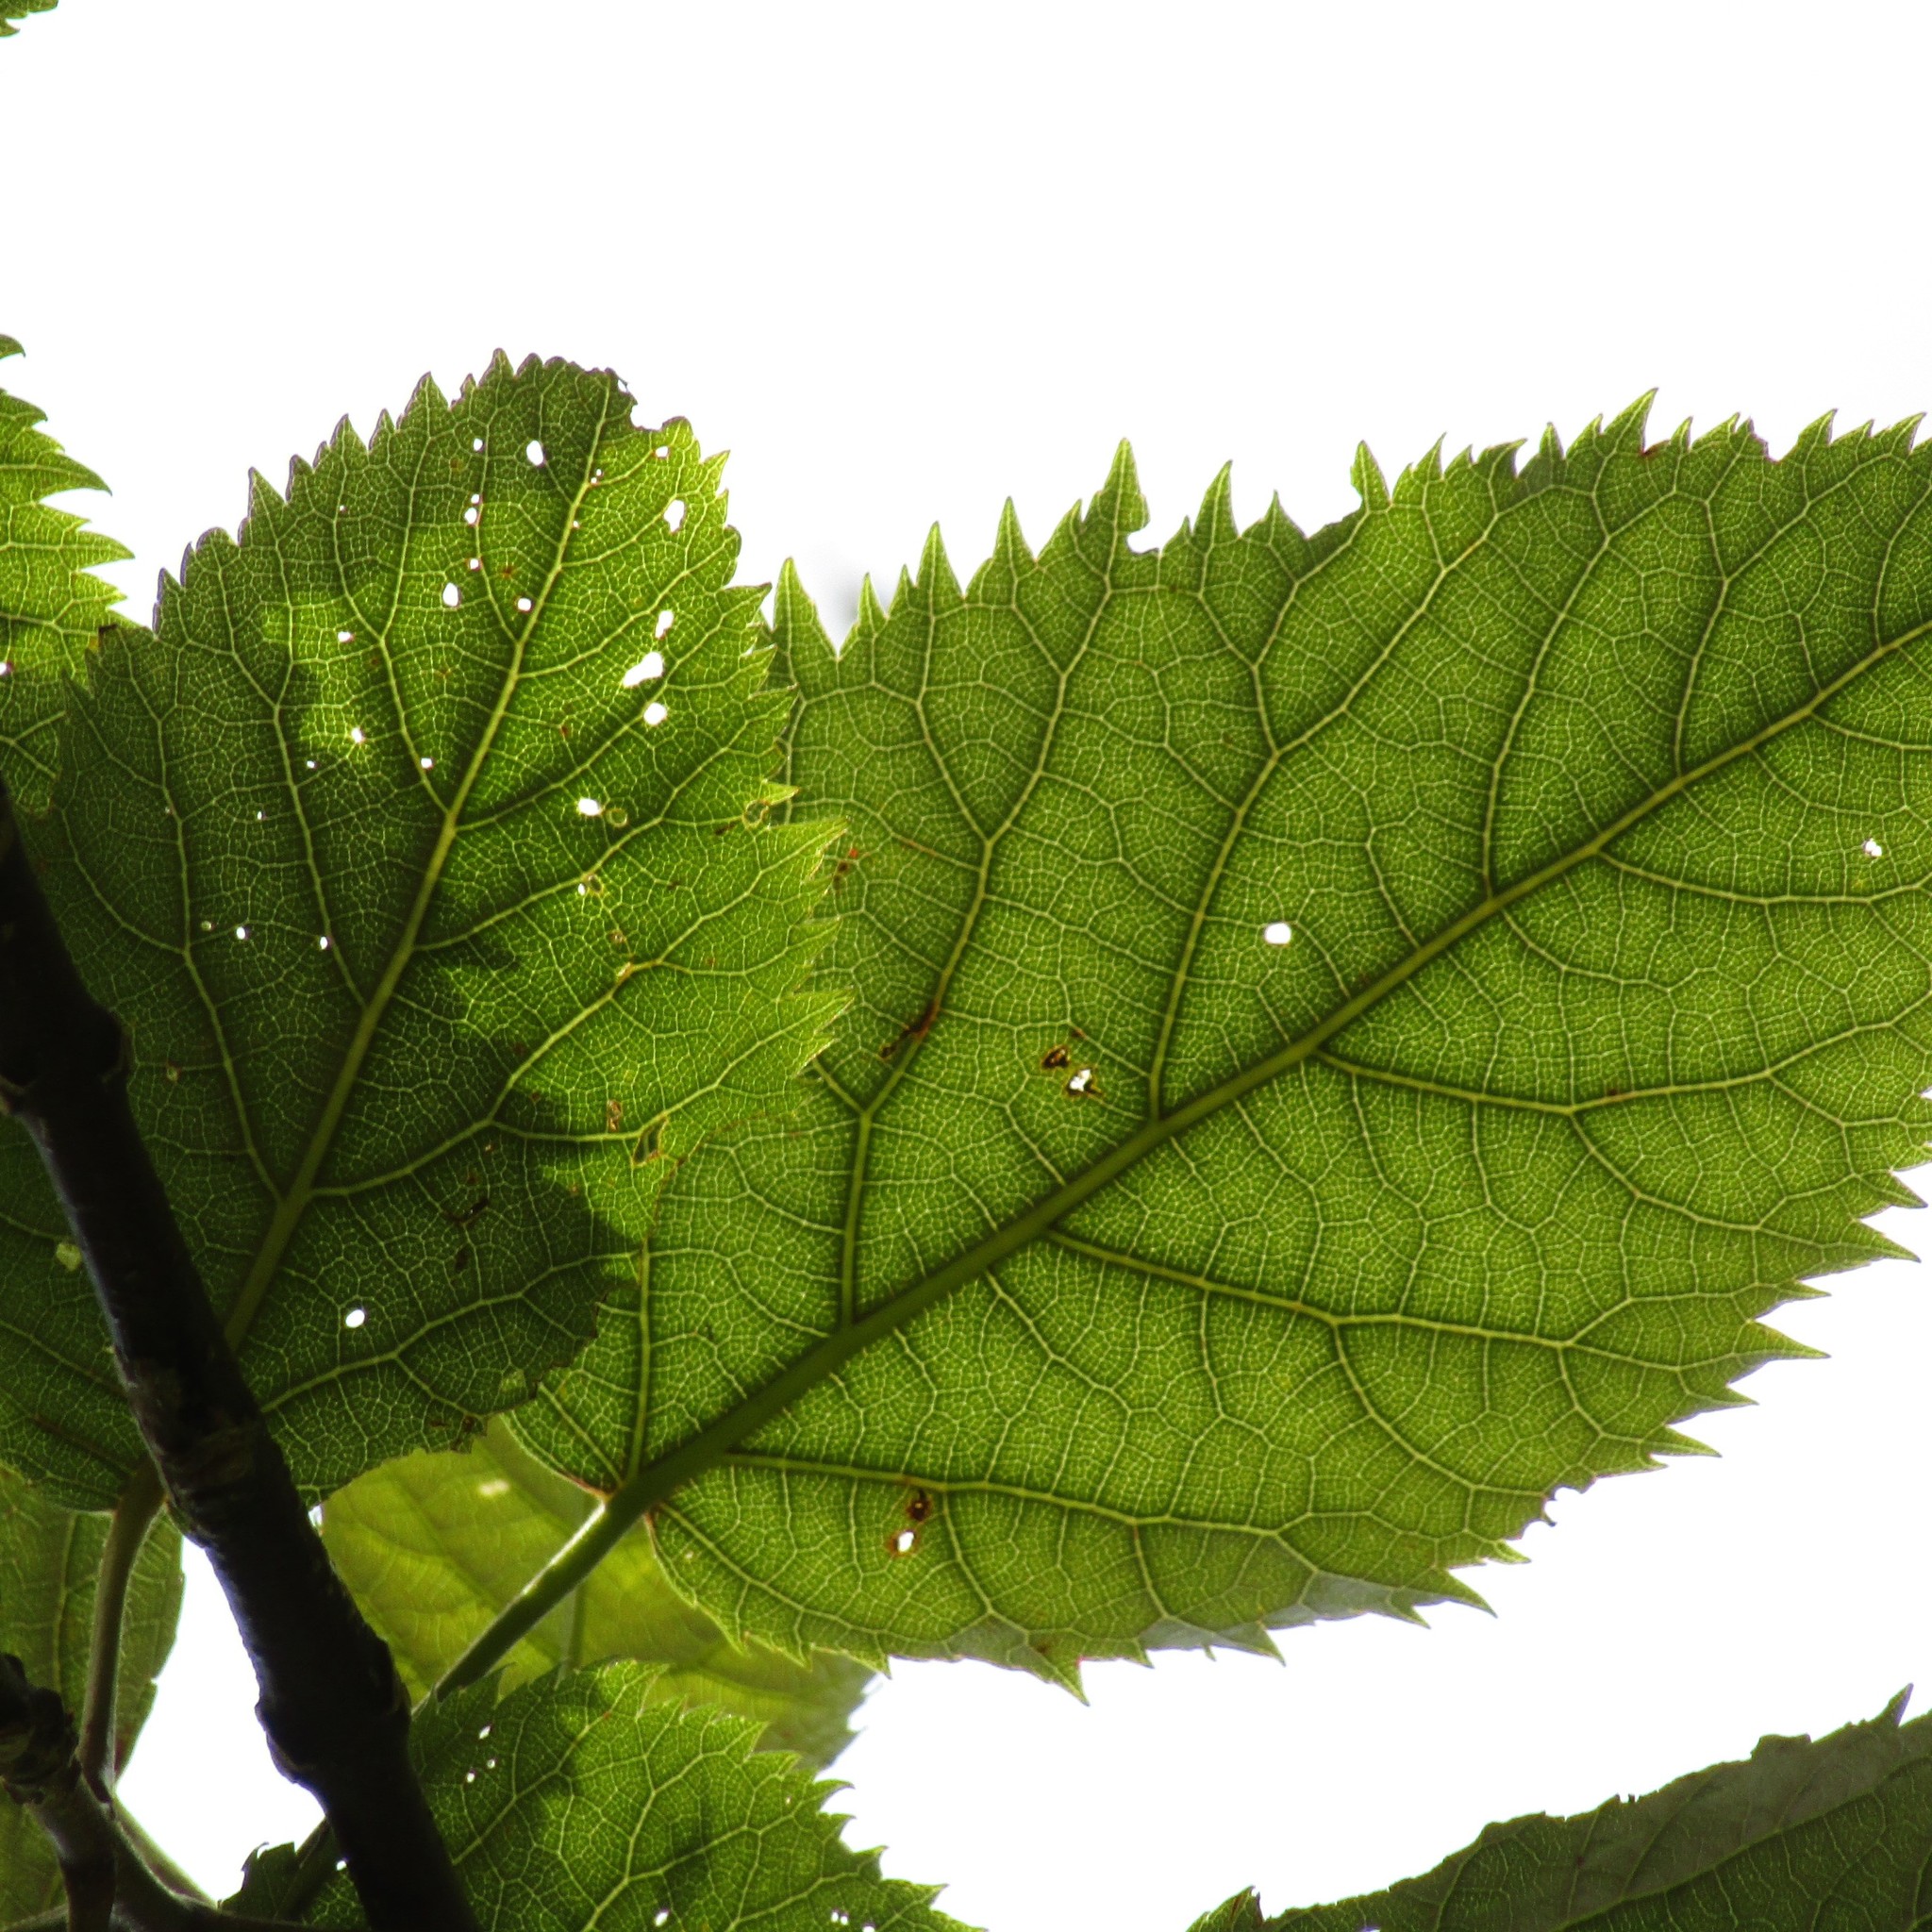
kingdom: Plantae
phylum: Tracheophyta
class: Magnoliopsida
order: Oxalidales
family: Elaeocarpaceae
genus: Aristotelia
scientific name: Aristotelia serrata
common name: New zealand wineberry
